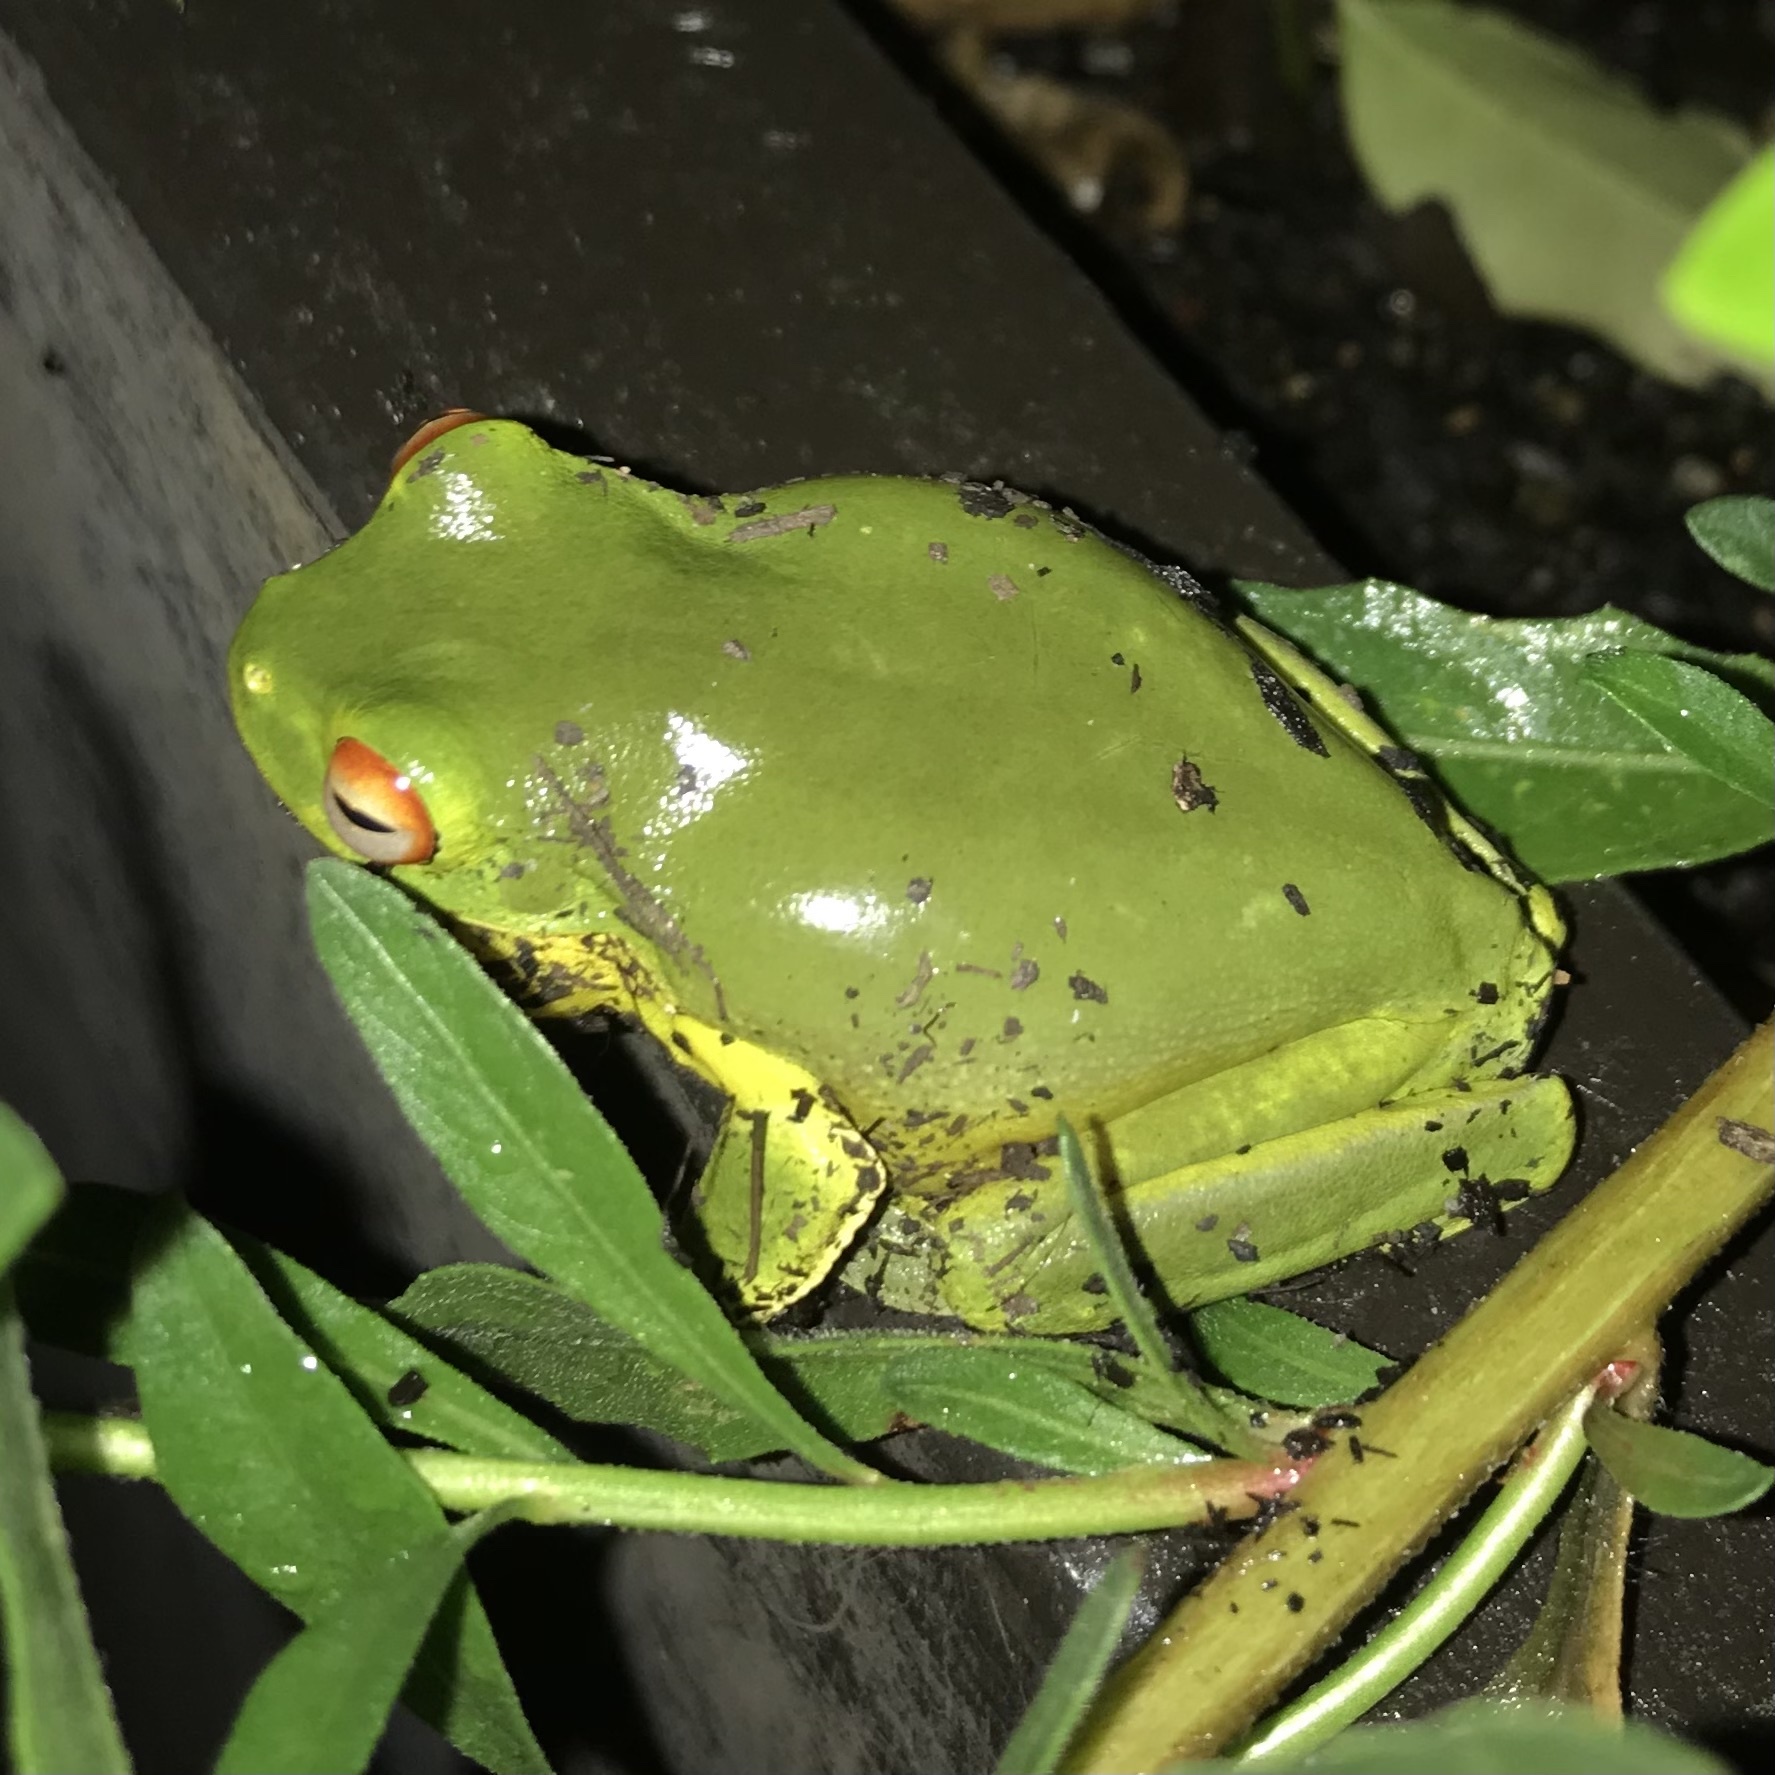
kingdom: Animalia
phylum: Chordata
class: Amphibia
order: Anura
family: Pelodryadidae
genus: Ranoidea
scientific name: Ranoidea chloris
